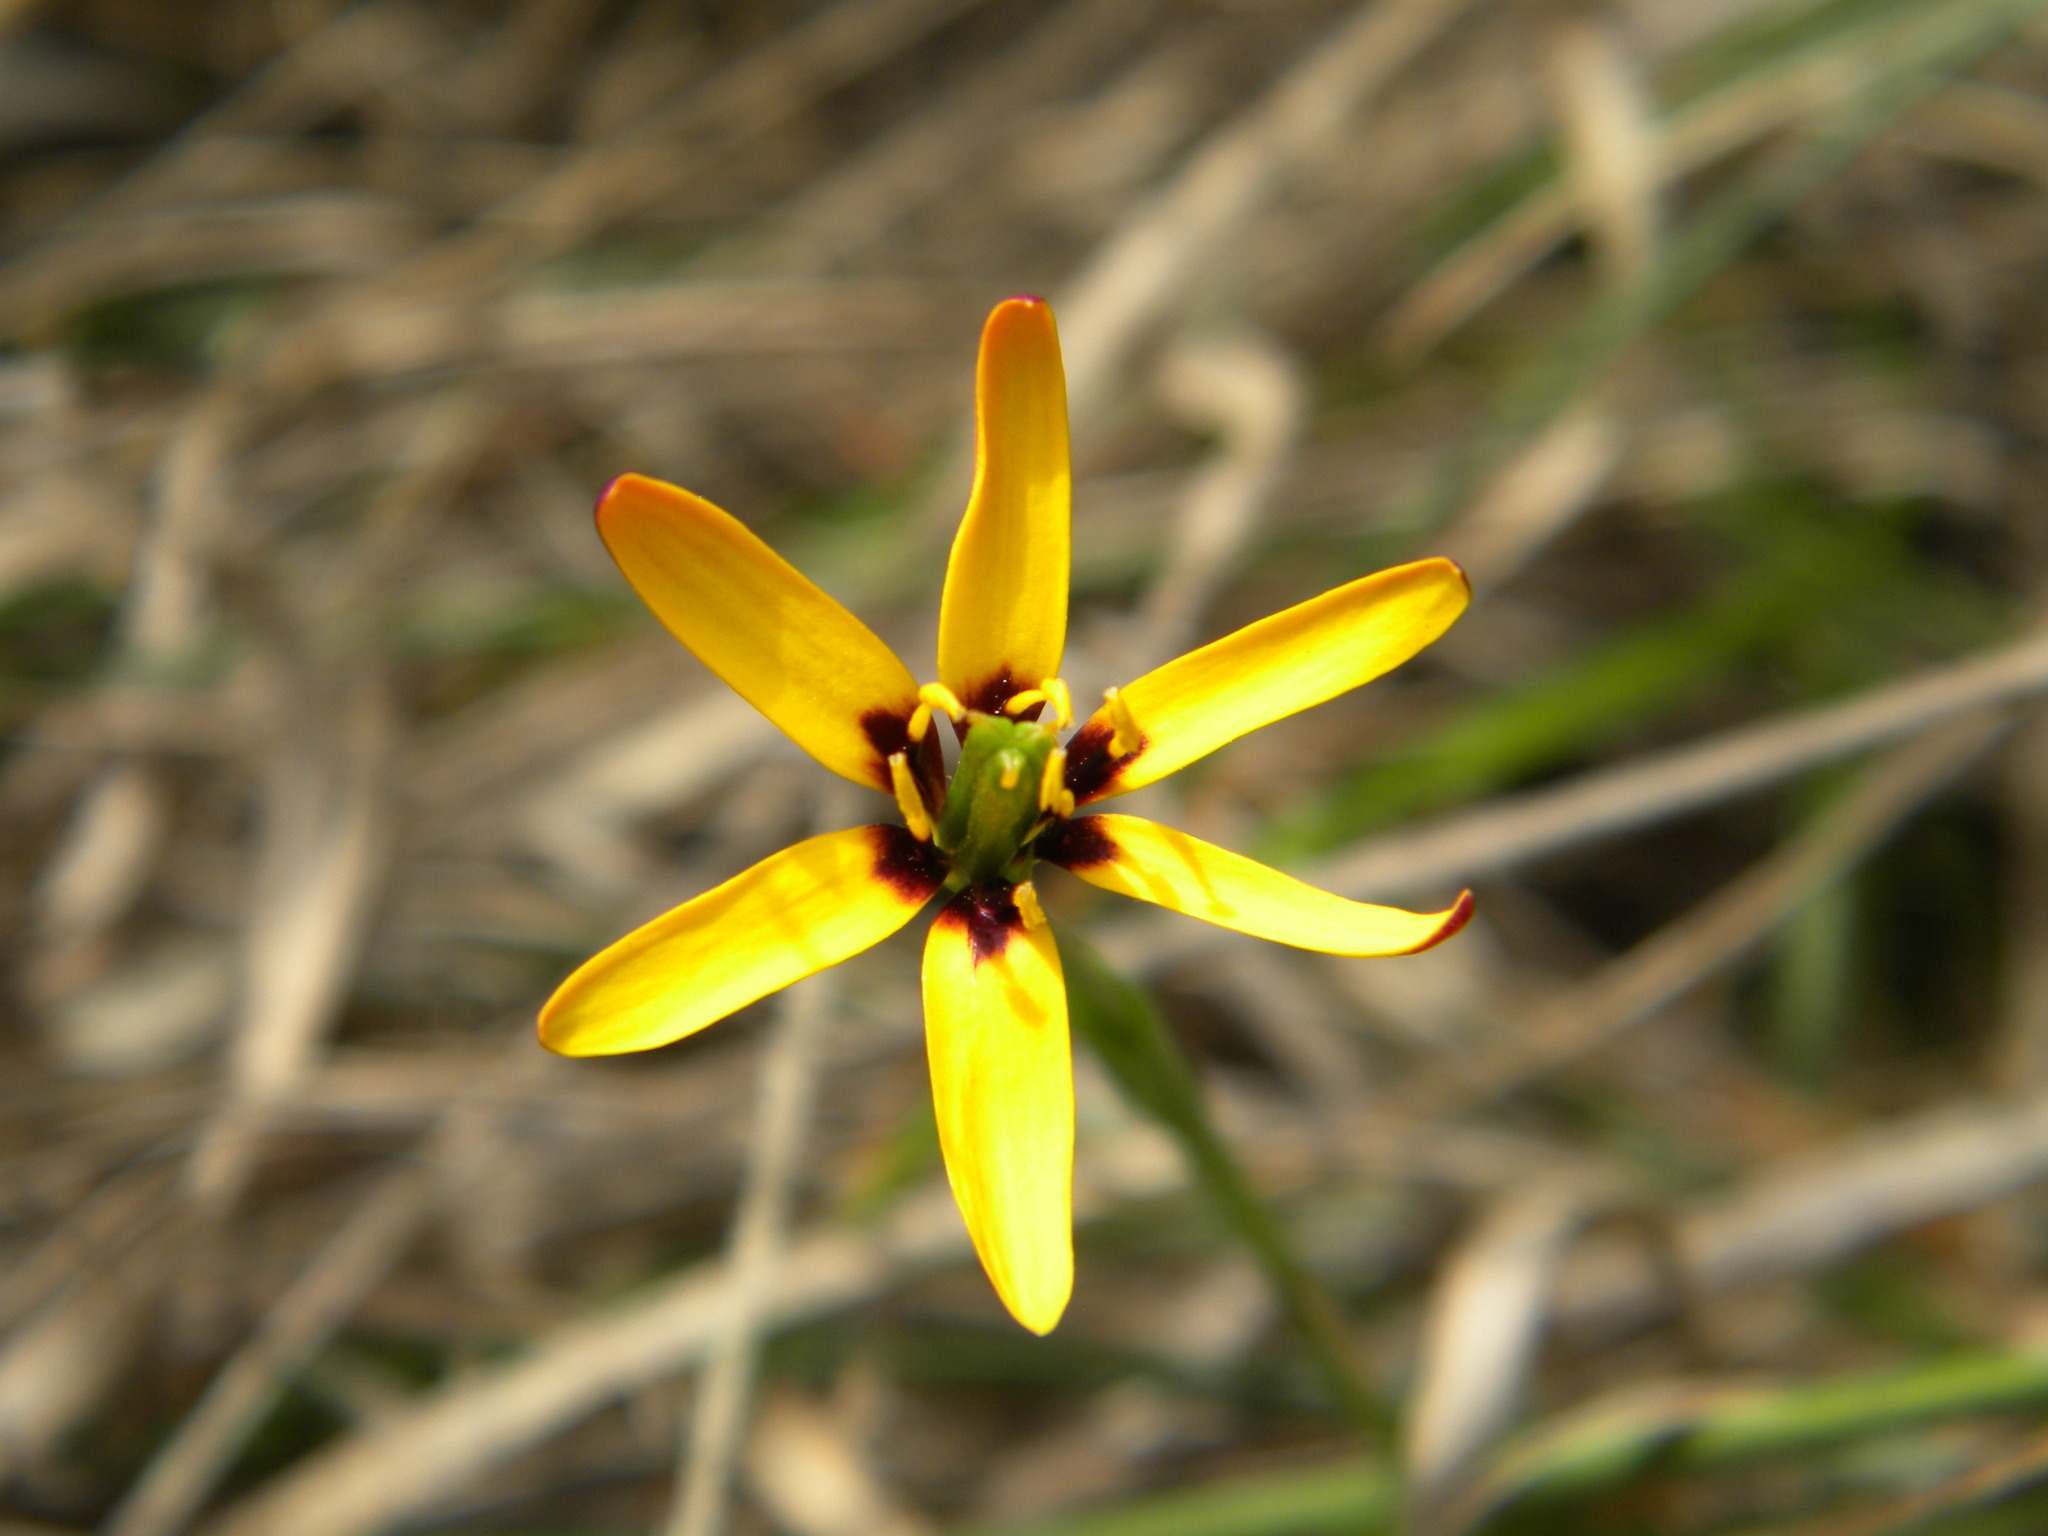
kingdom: Plantae
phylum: Tracheophyta
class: Liliopsida
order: Liliales
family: Colchicaceae
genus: Baeometra
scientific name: Baeometra uniflora
